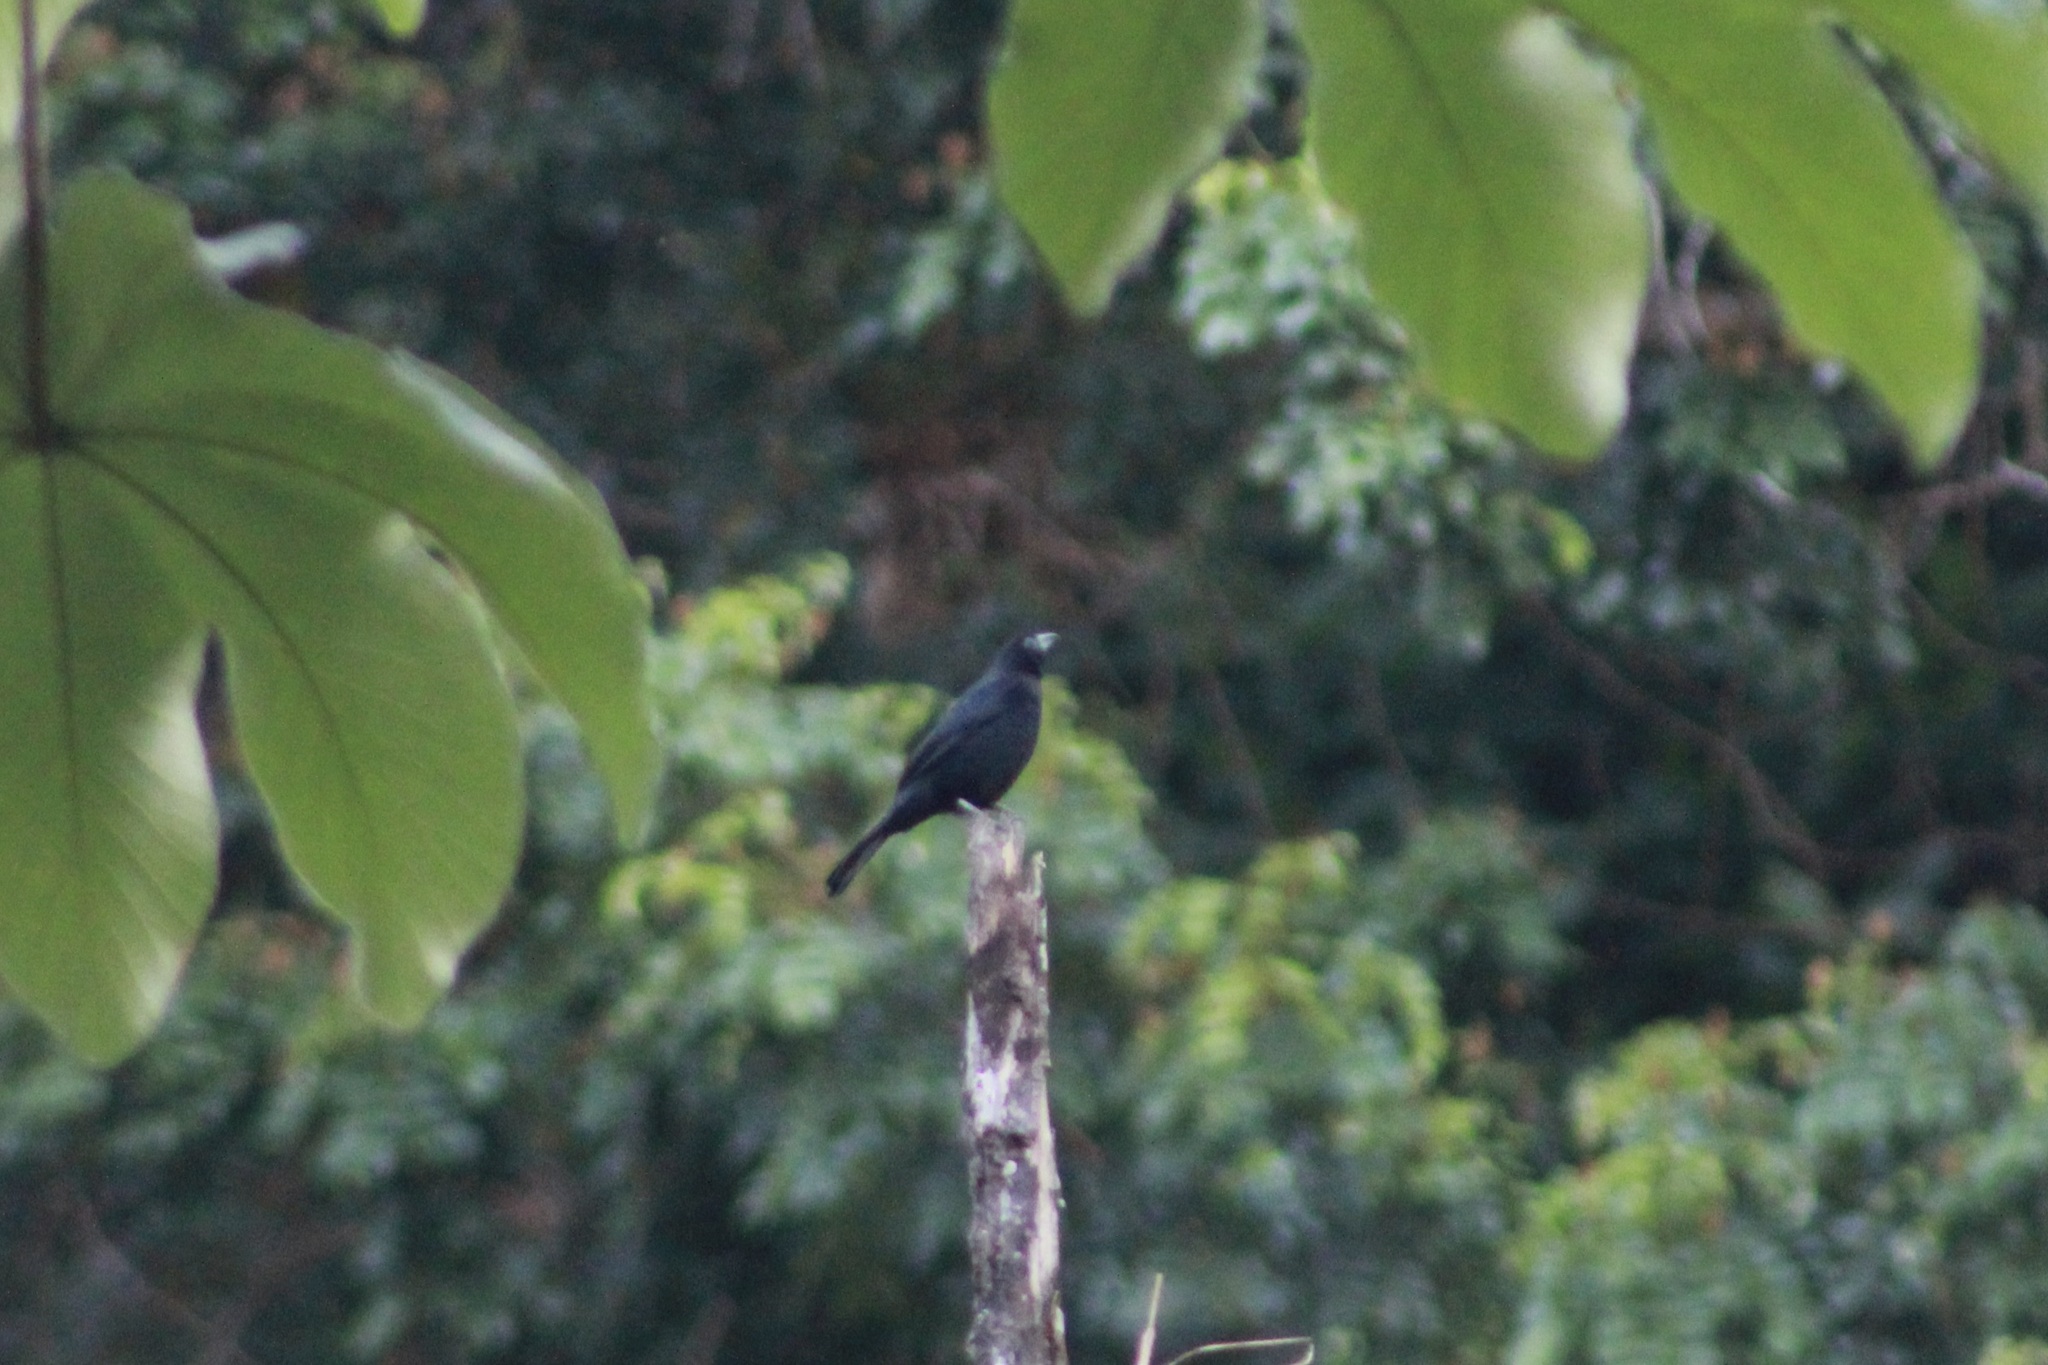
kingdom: Animalia
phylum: Chordata
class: Aves
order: Passeriformes
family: Thraupidae
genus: Tachyphonus
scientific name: Tachyphonus rufus
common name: White-lined tanager
